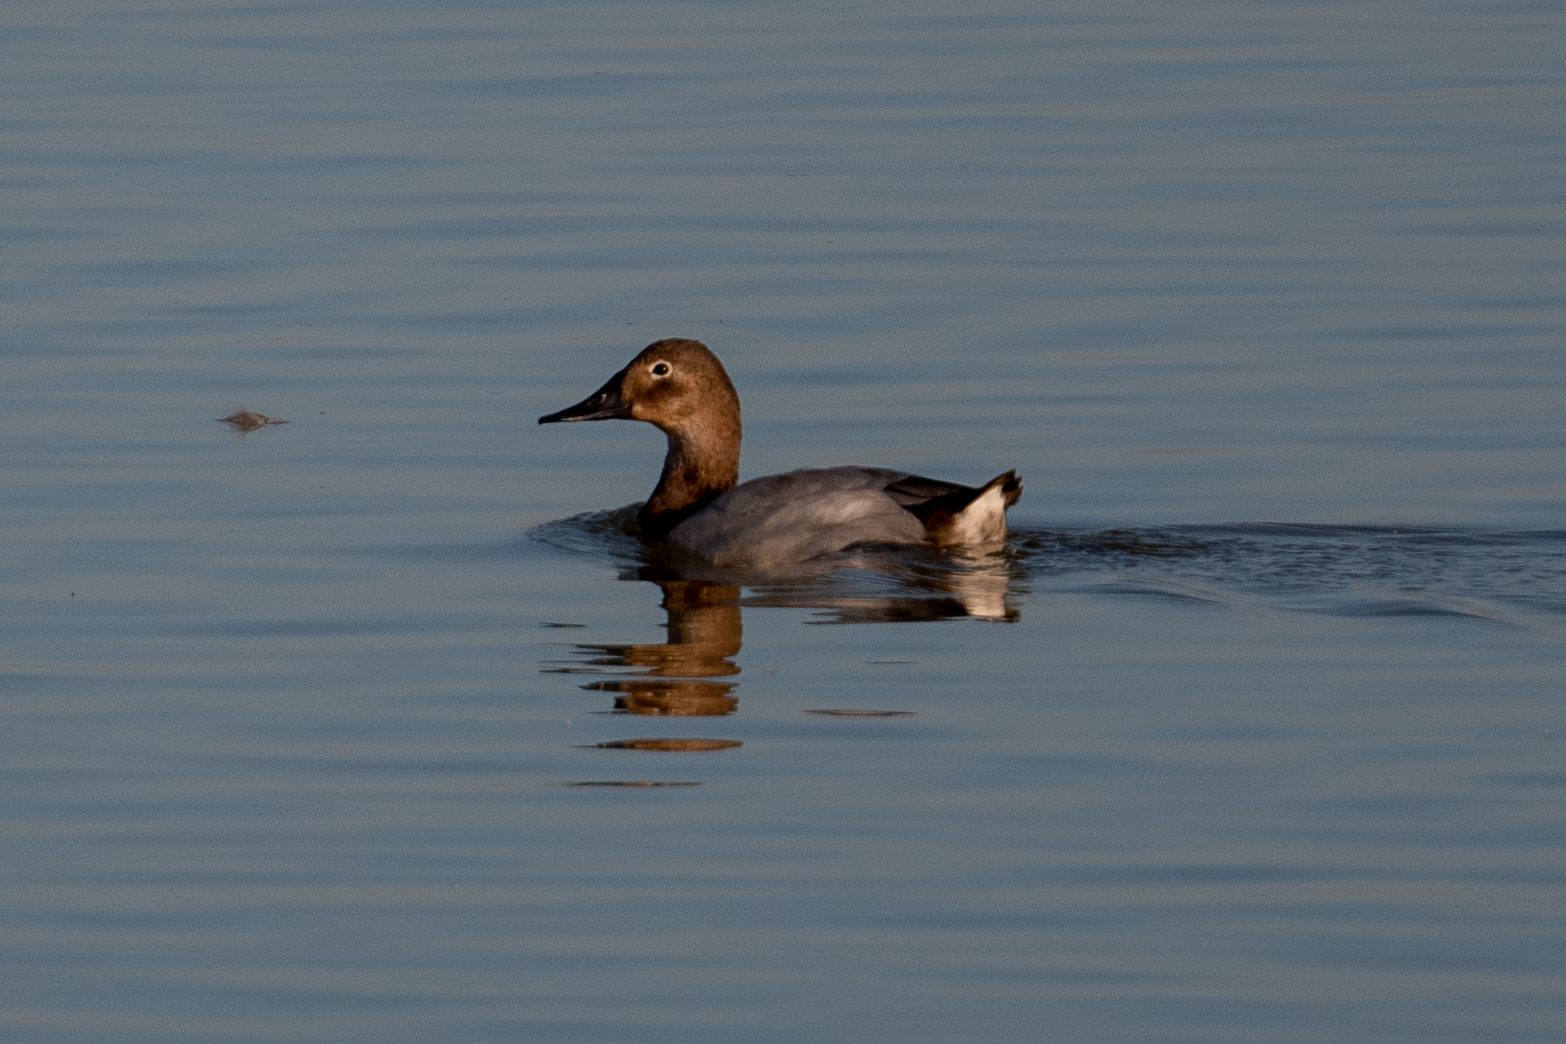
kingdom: Animalia
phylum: Chordata
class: Aves
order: Anseriformes
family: Anatidae
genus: Aythya
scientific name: Aythya valisineria
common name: Canvasback
